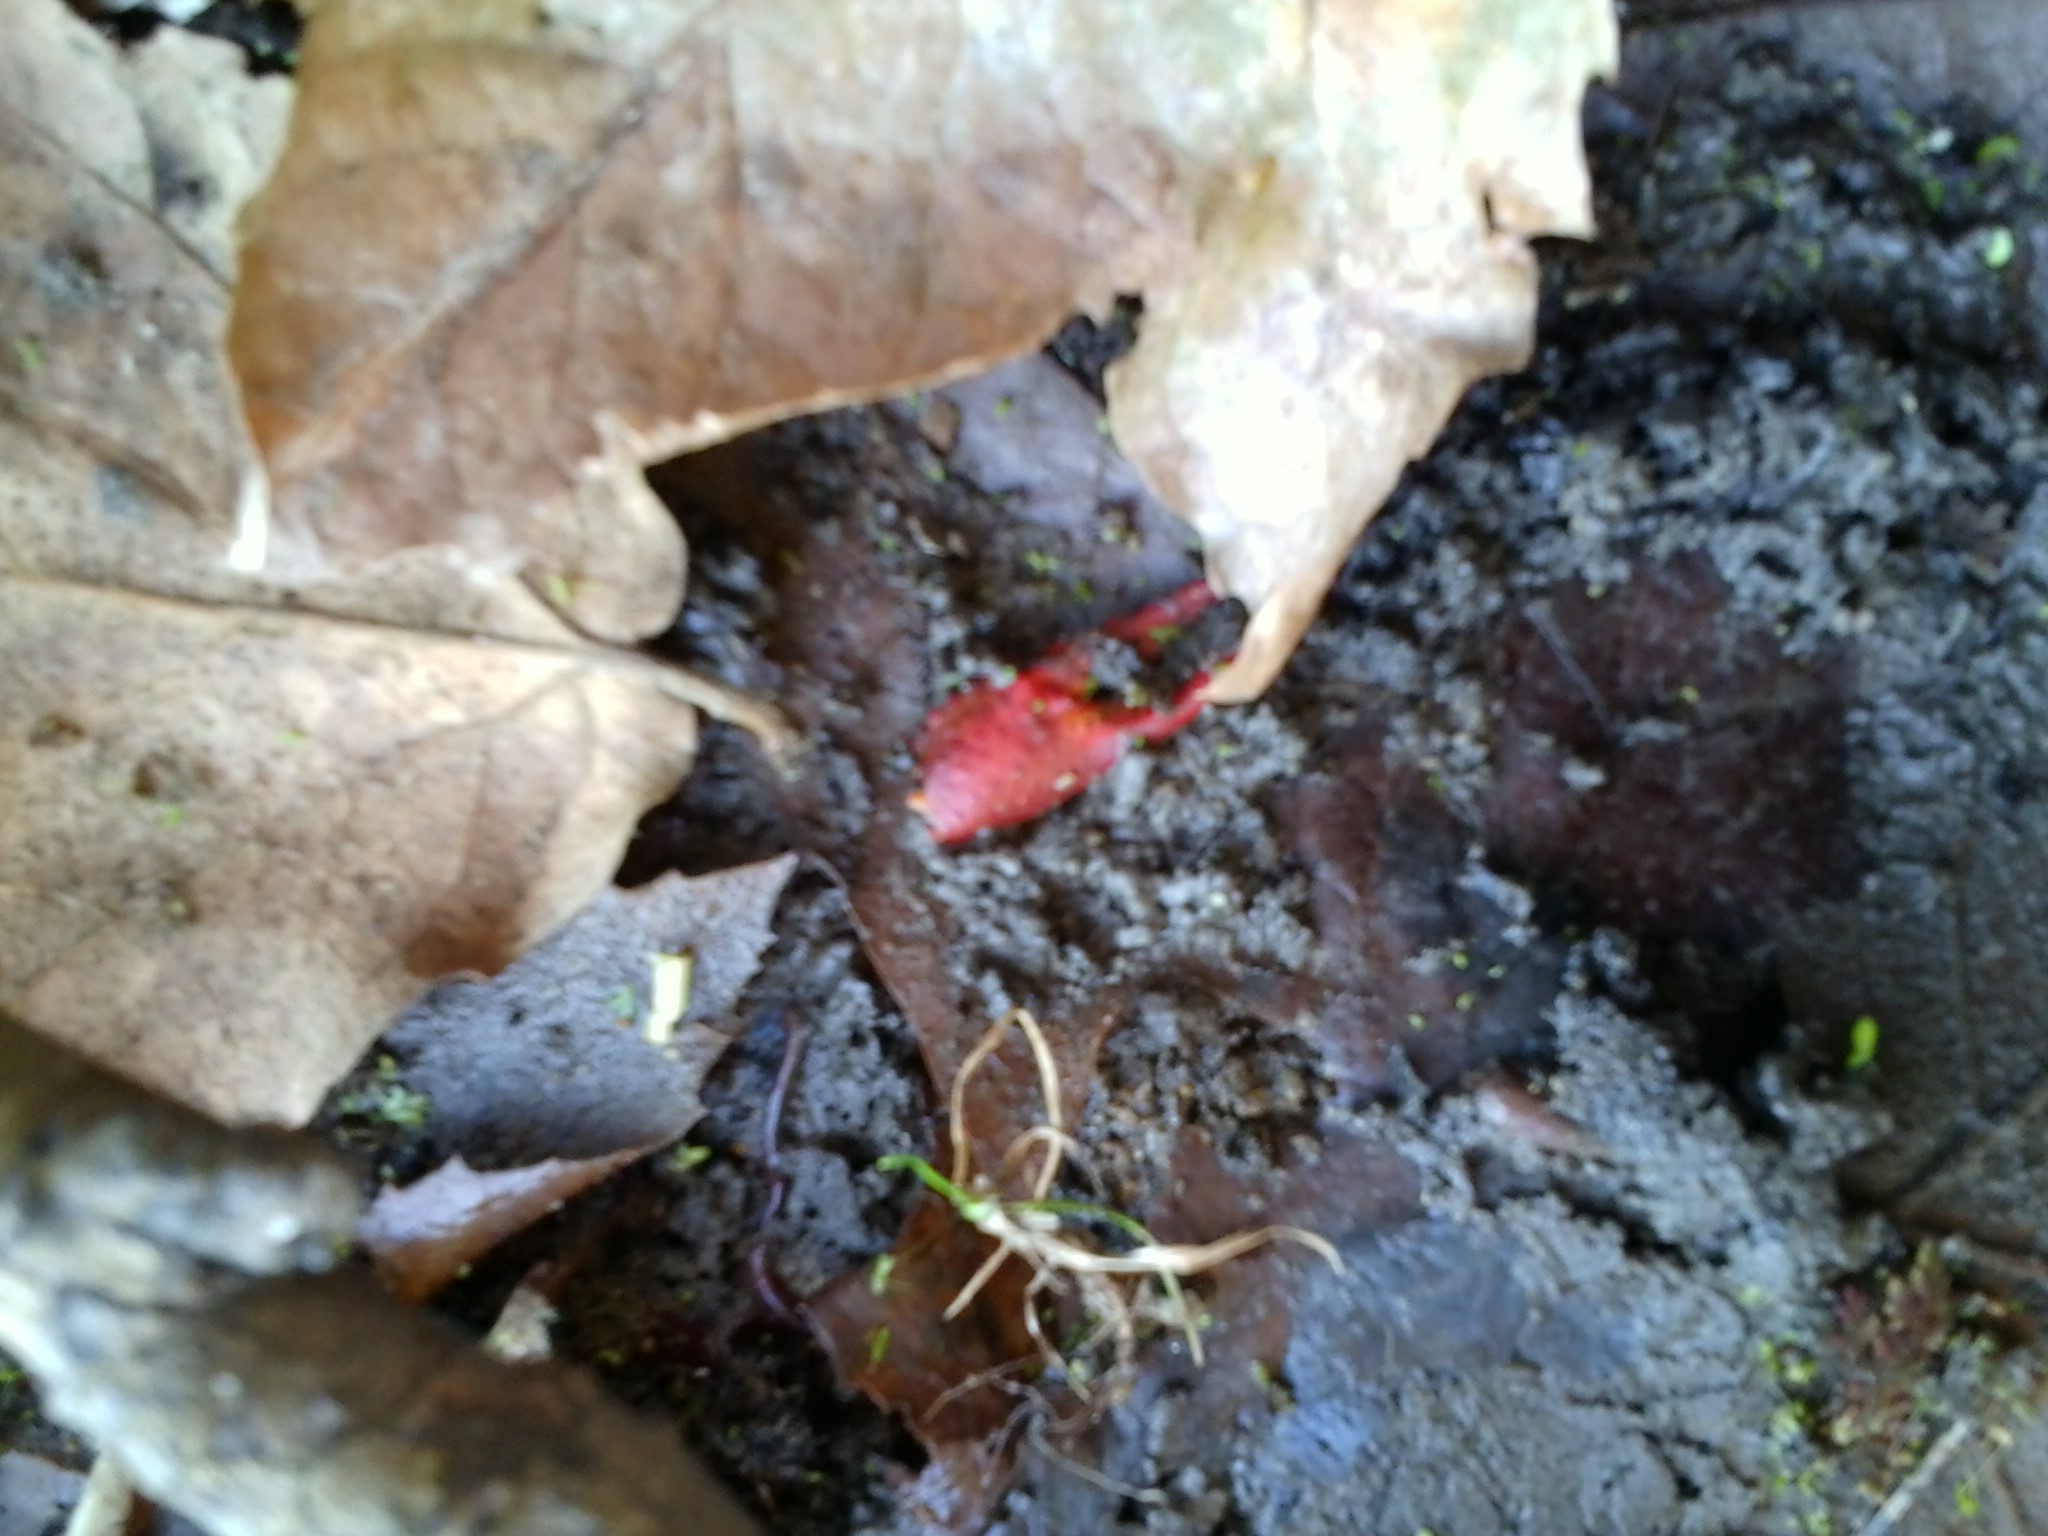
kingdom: Animalia
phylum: Arthropoda
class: Malacostraca
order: Decapoda
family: Cambaridae
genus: Procambarus
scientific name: Procambarus clarkii
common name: Red swamp crayfish
